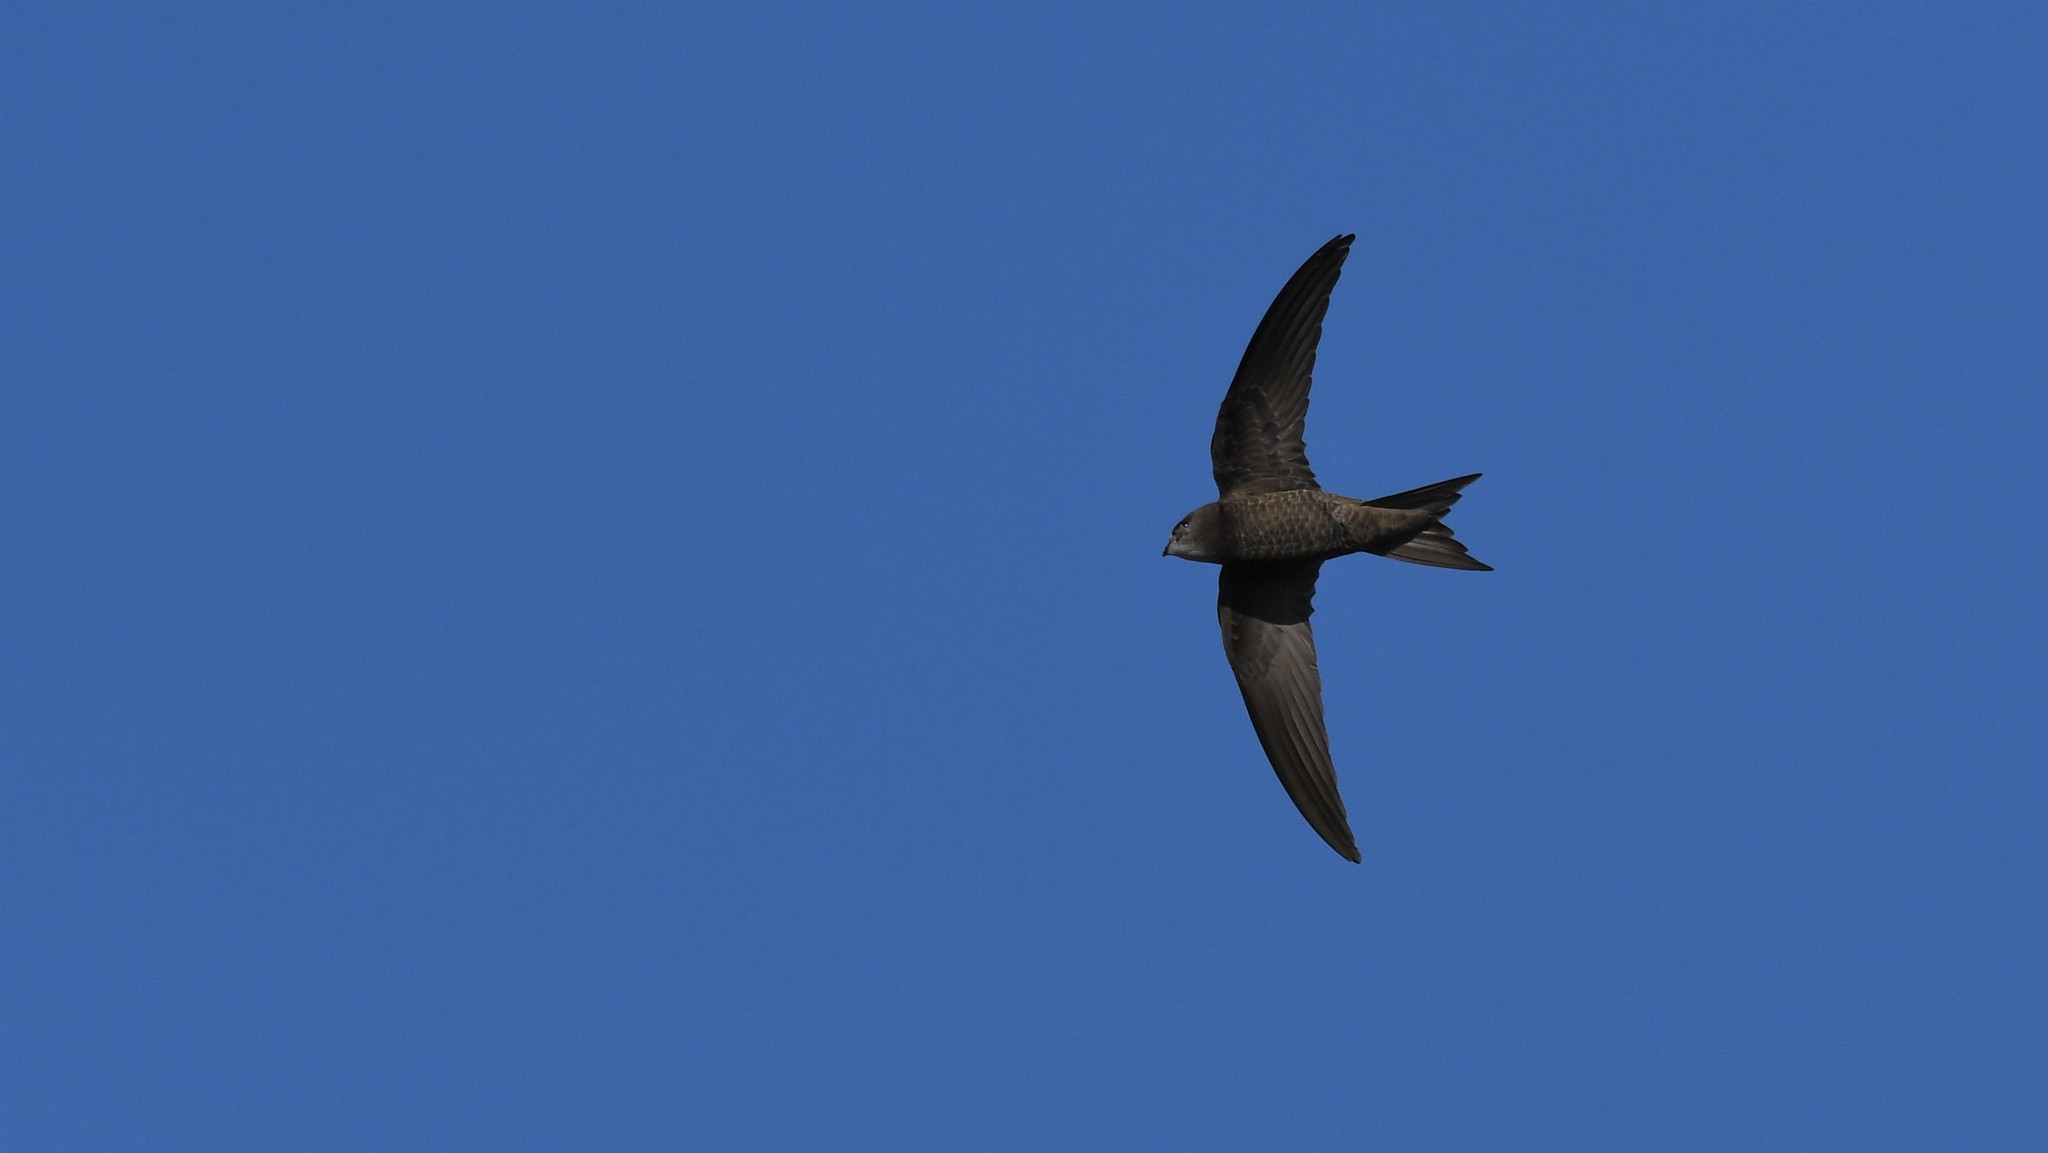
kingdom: Animalia
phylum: Chordata
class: Aves
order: Apodiformes
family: Apodidae
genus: Apus
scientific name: Apus pallidus
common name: Pallid swift
